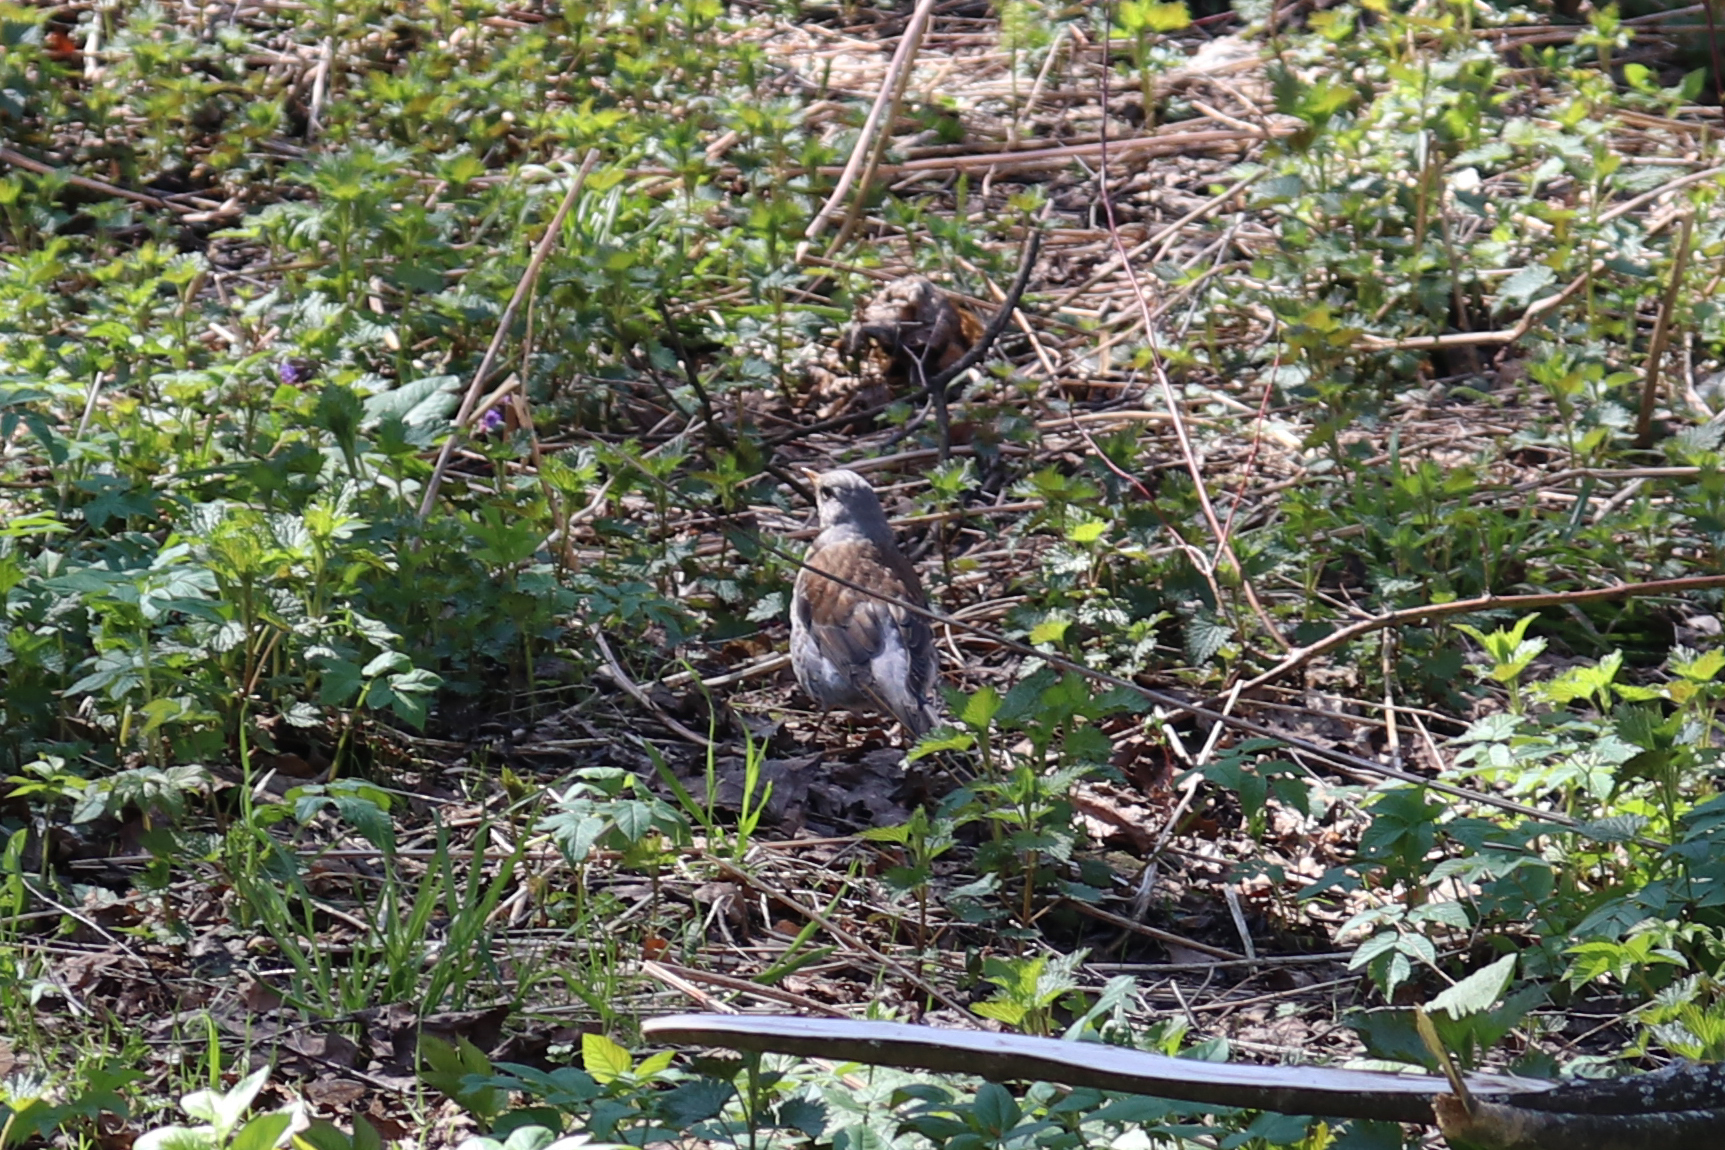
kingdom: Animalia
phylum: Chordata
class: Aves
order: Passeriformes
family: Turdidae
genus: Turdus
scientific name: Turdus pilaris
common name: Fieldfare
